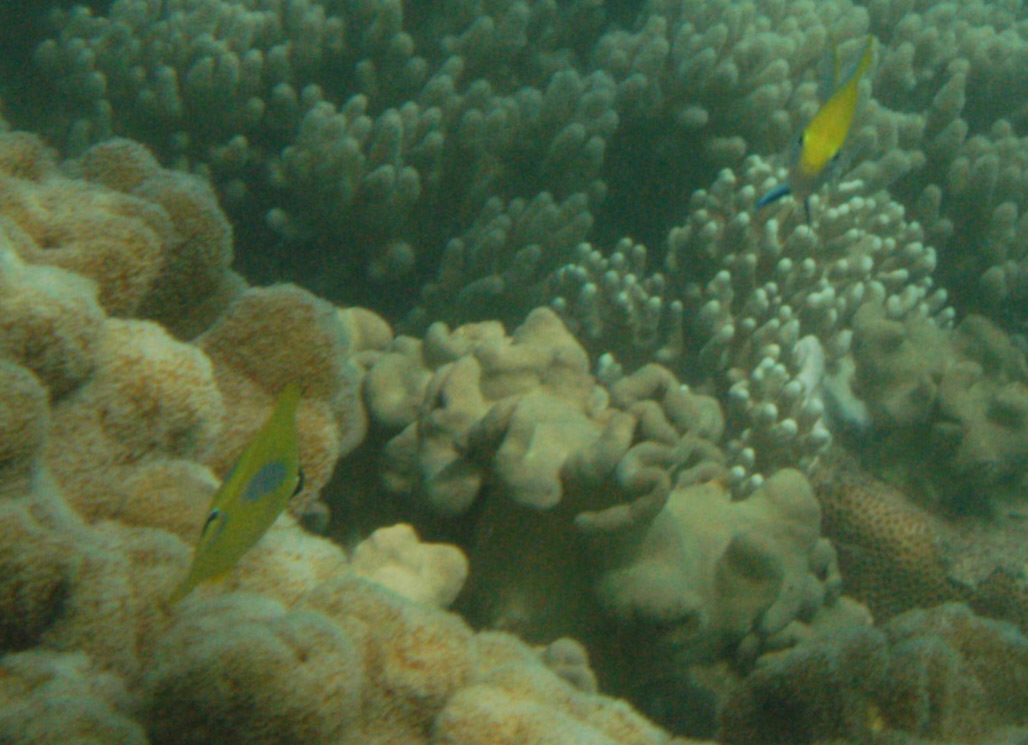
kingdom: Animalia
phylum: Chordata
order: Perciformes
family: Chaetodontidae
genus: Chaetodon
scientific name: Chaetodon plebeius
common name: Bluespot butterflyfish
